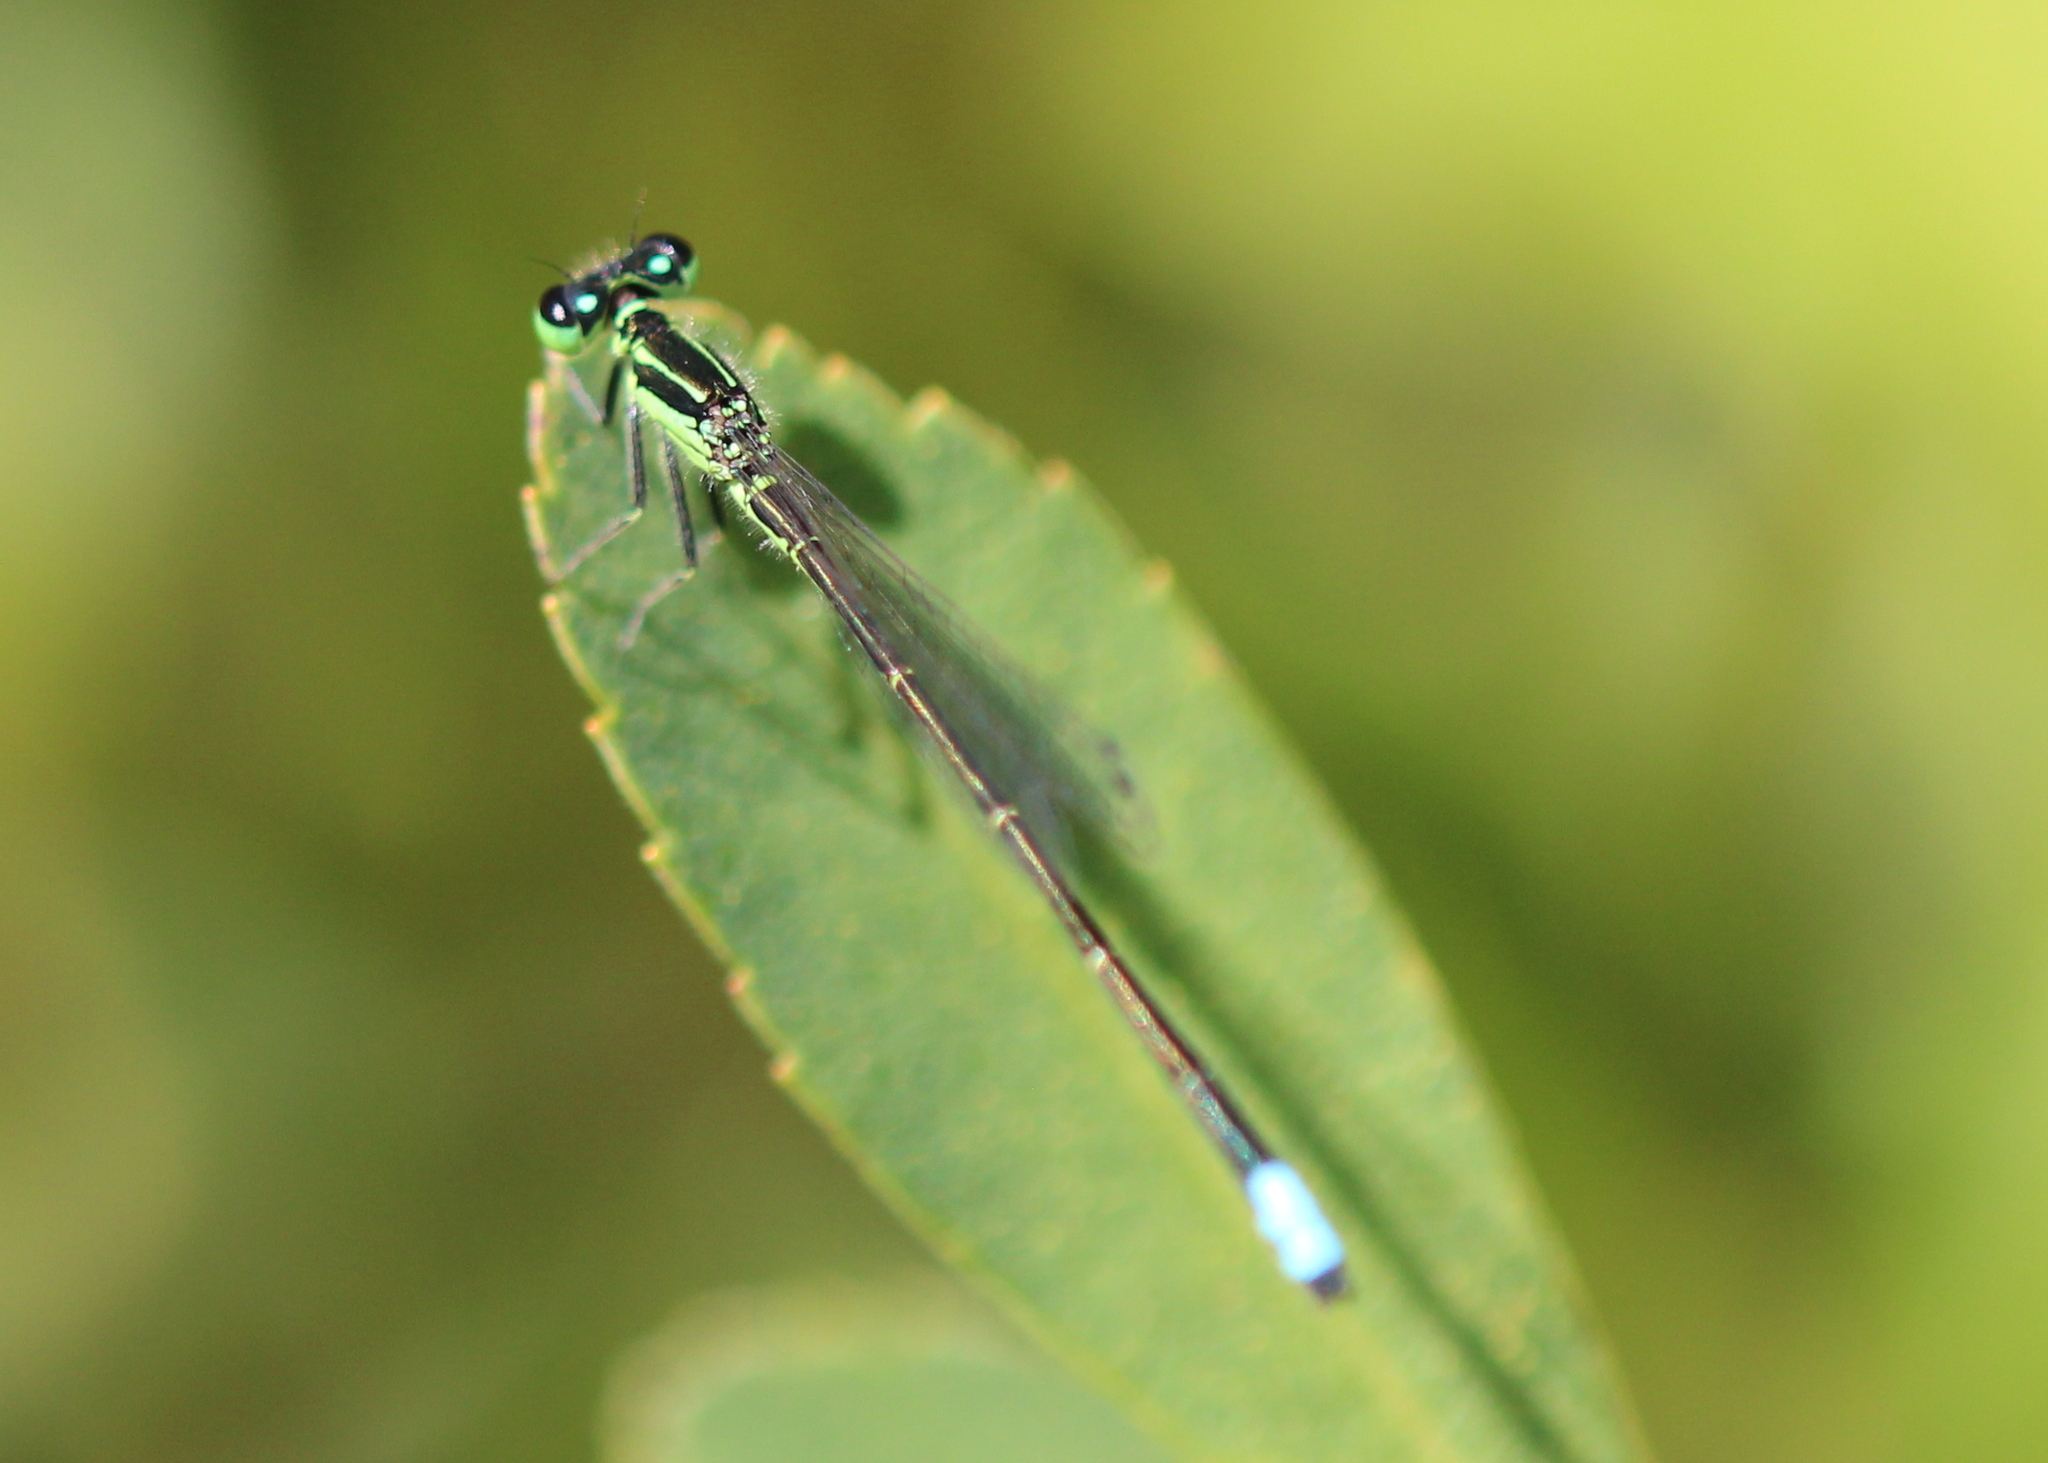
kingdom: Animalia
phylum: Arthropoda
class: Insecta
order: Odonata
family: Coenagrionidae
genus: Ischnura
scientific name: Ischnura verticalis
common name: Eastern forktail
